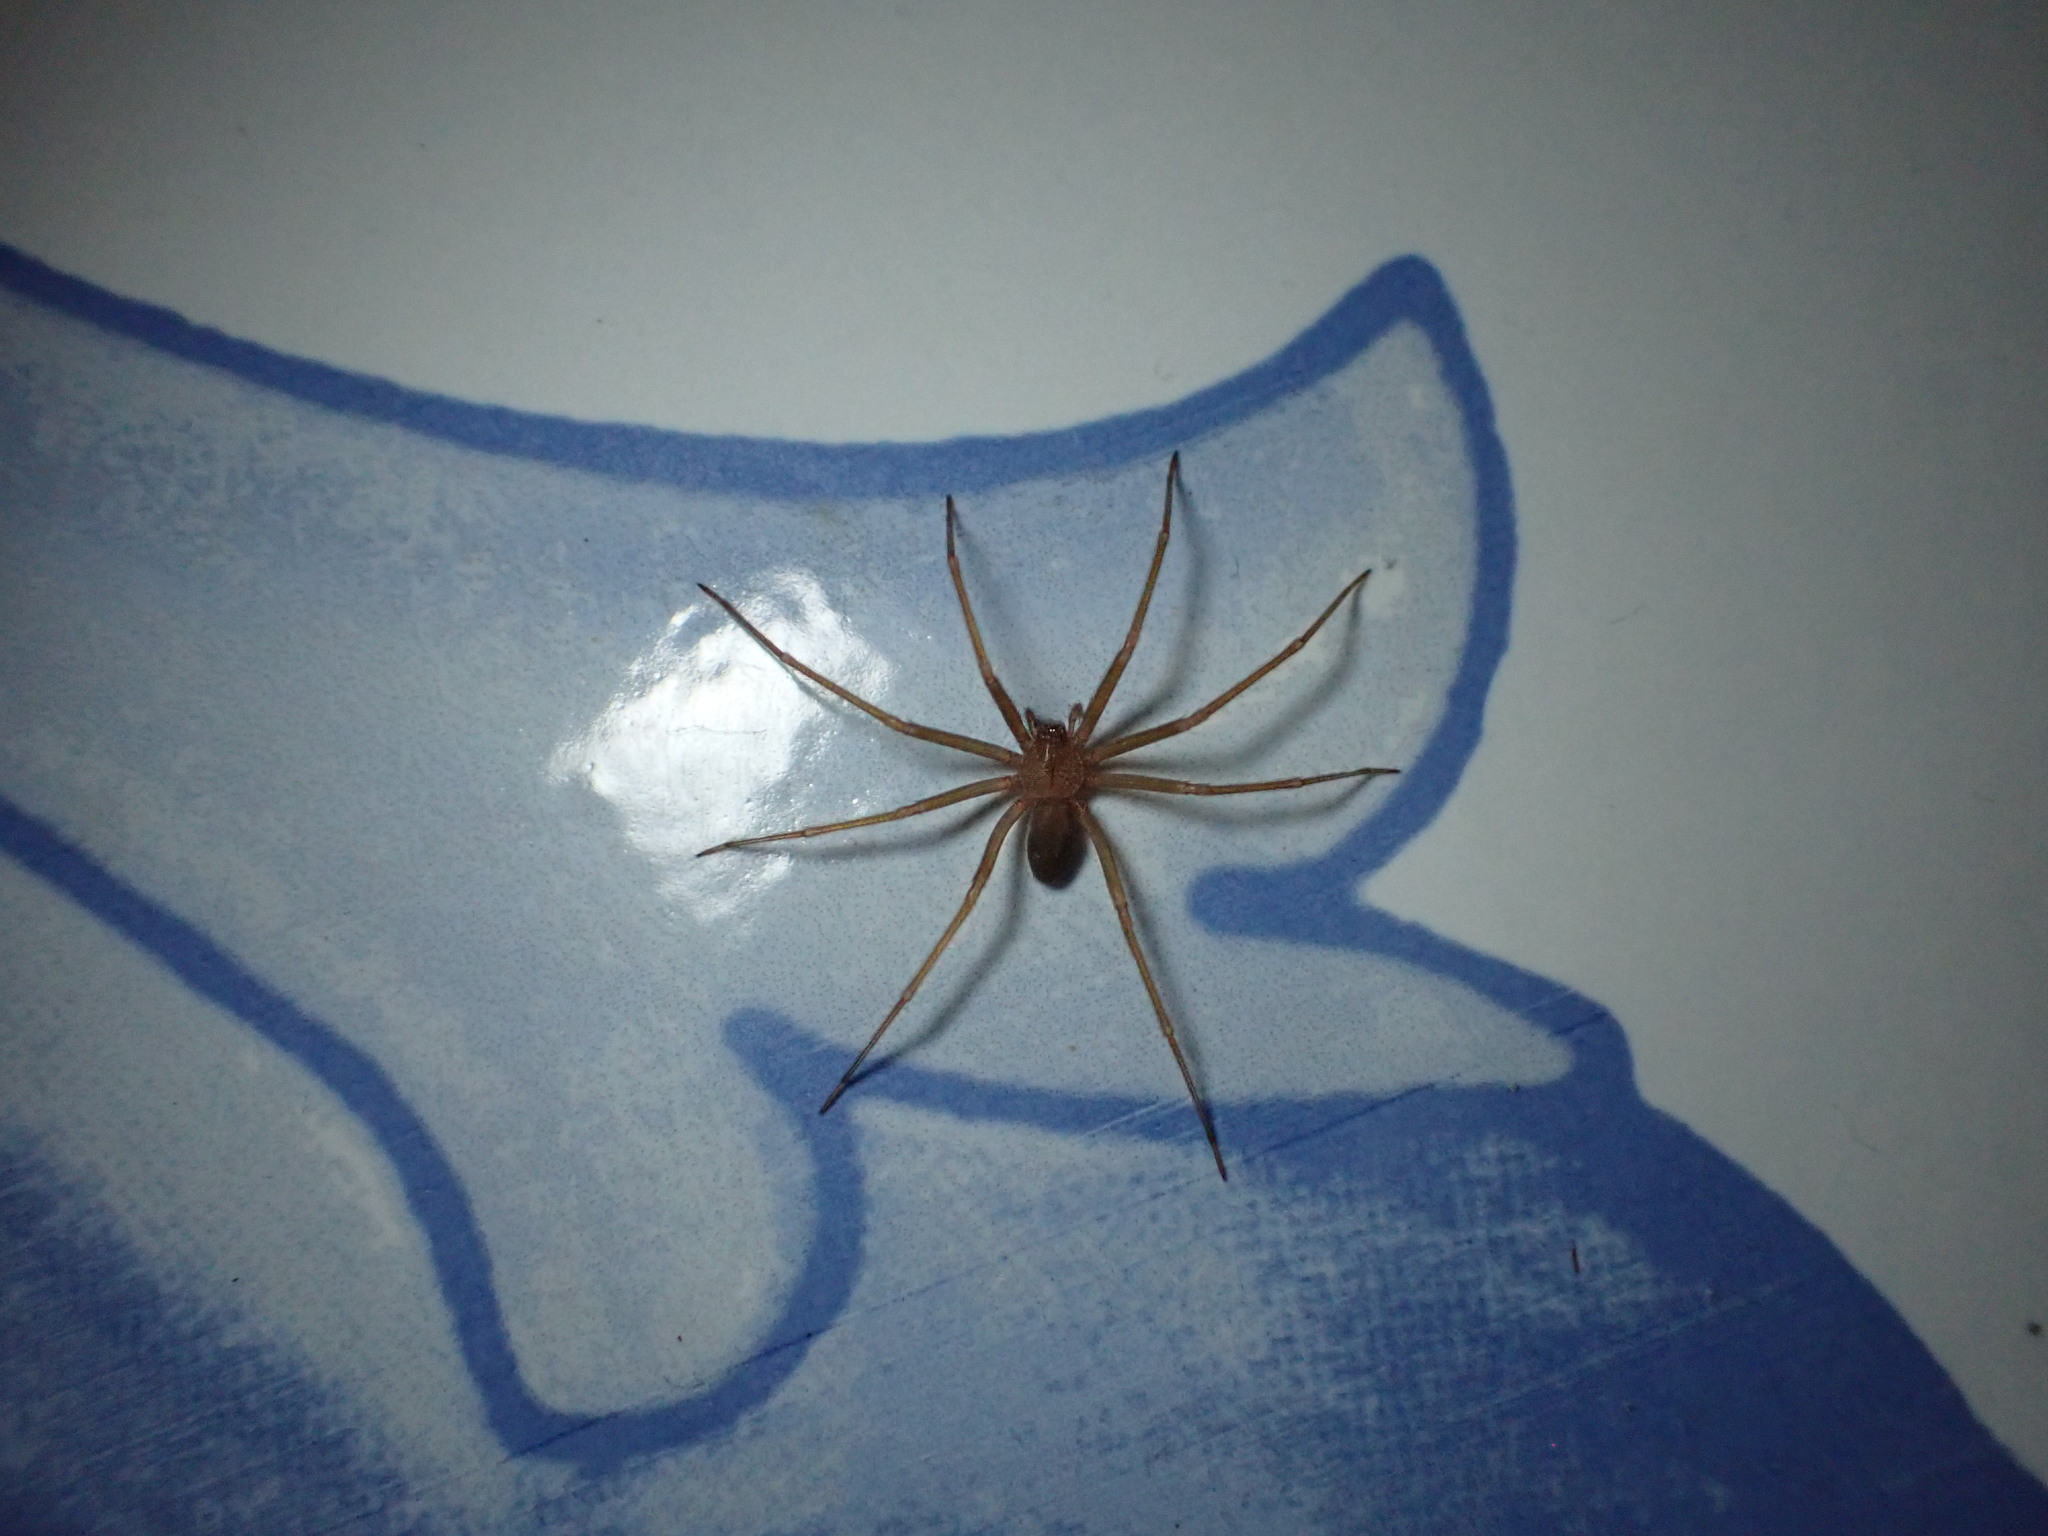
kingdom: Animalia
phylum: Arthropoda
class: Arachnida
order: Araneae
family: Sicariidae
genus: Loxosceles
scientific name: Loxosceles rufescens
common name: Mediterranean recluse spider
